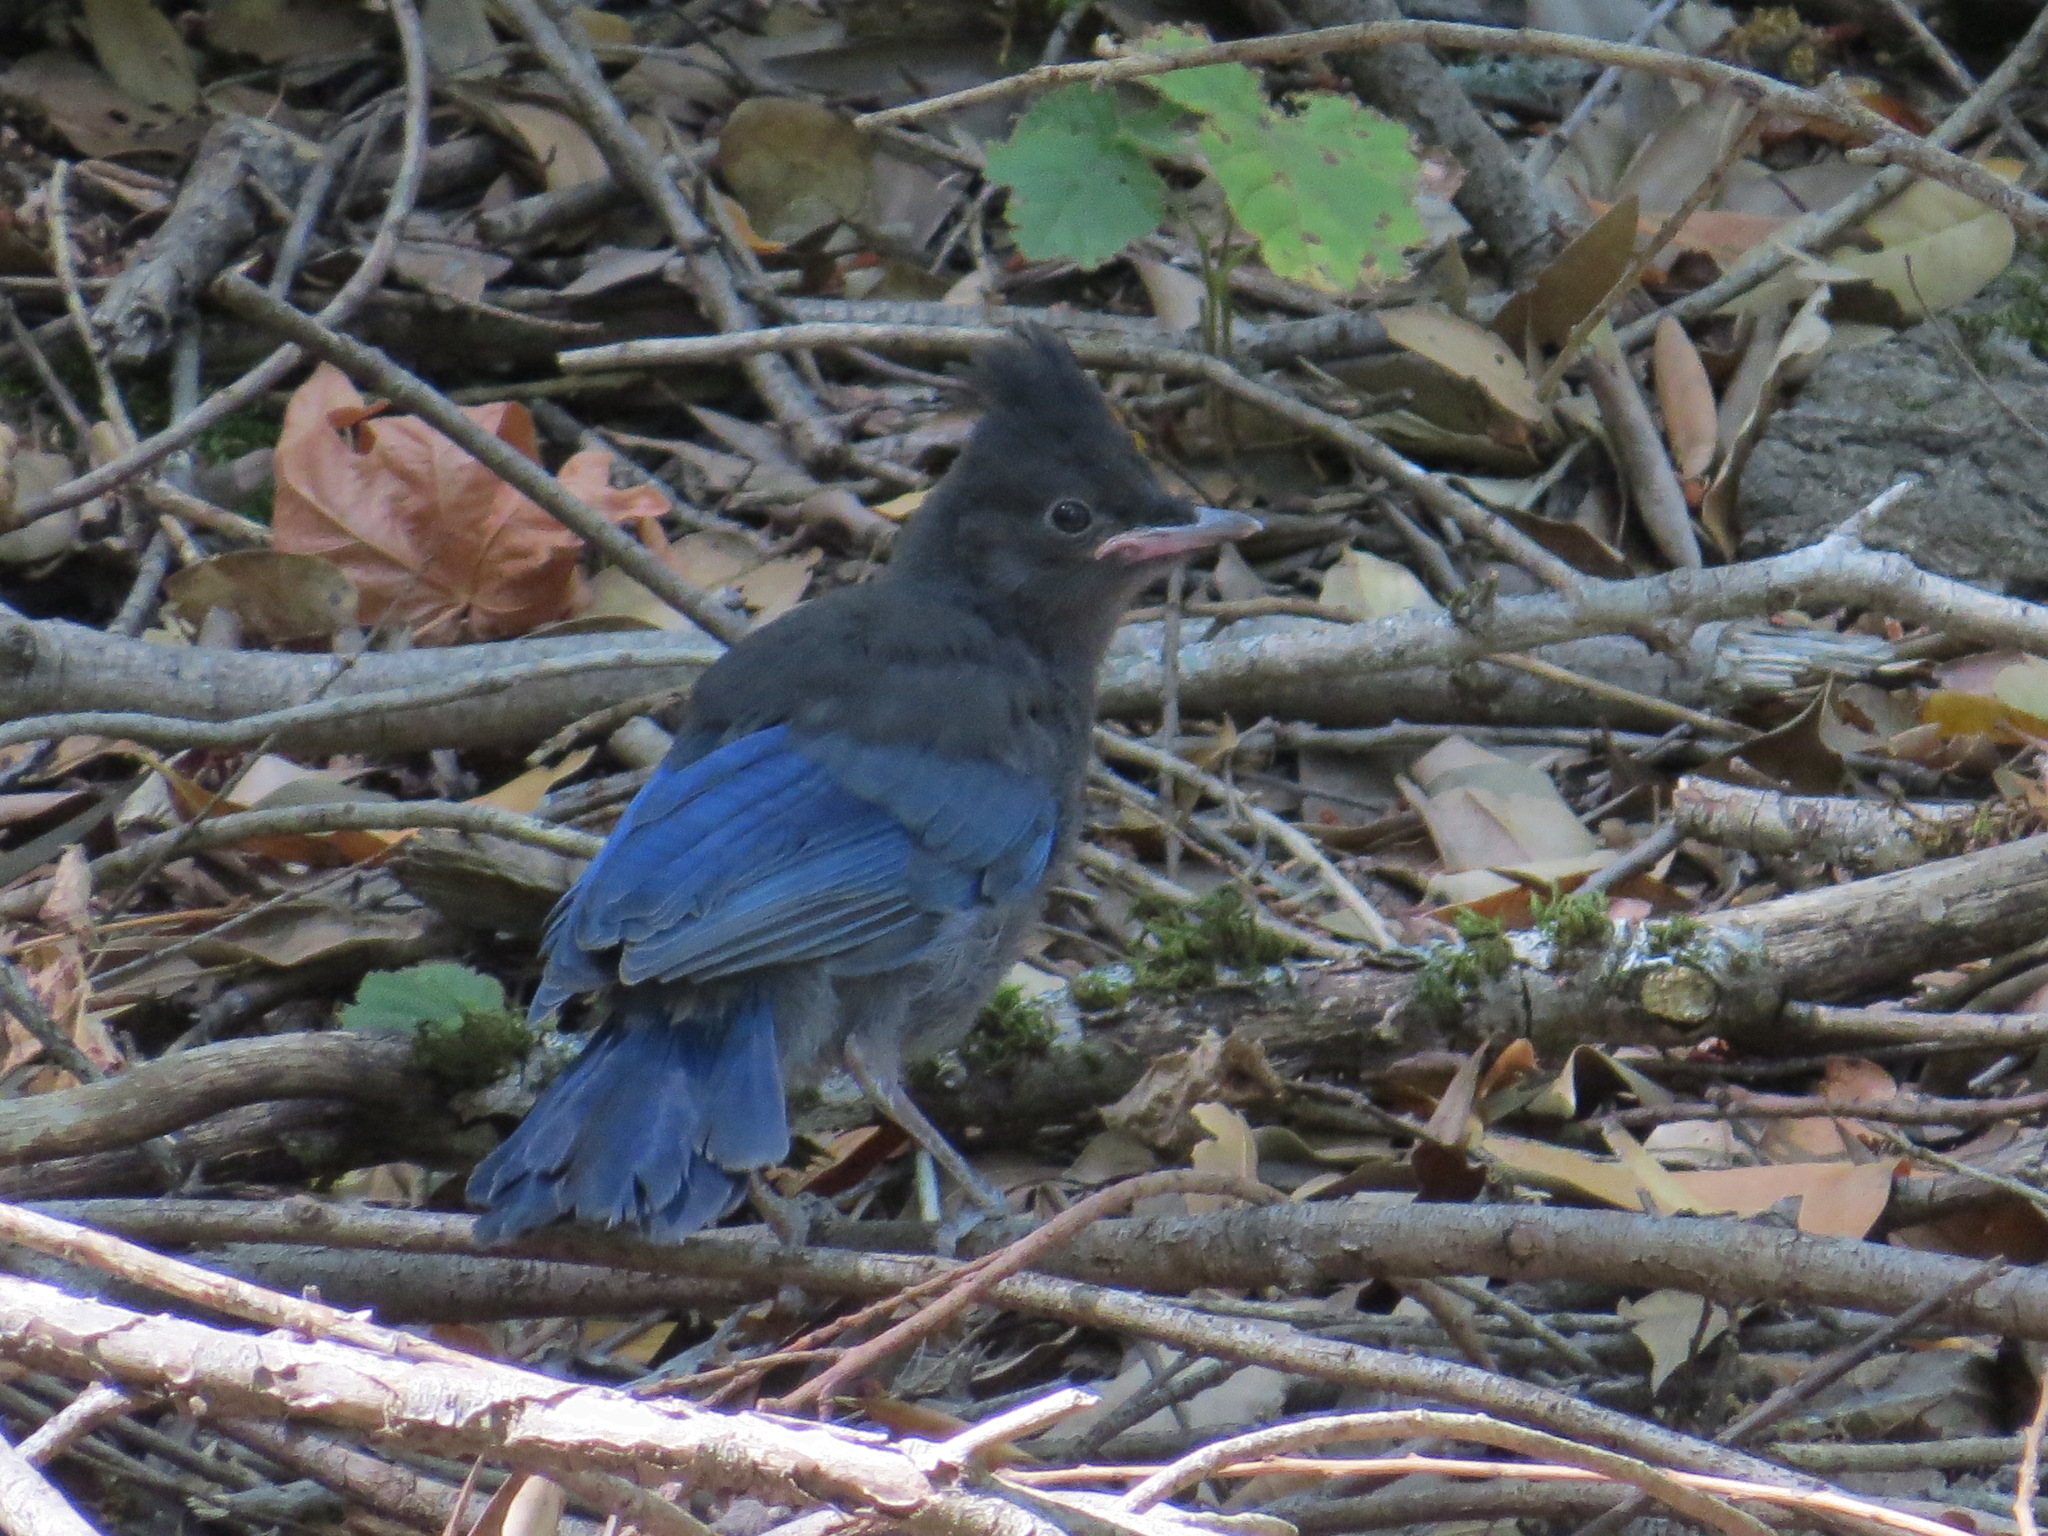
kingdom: Animalia
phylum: Chordata
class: Aves
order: Passeriformes
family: Corvidae
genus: Cyanocitta
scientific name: Cyanocitta stelleri
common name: Steller's jay
